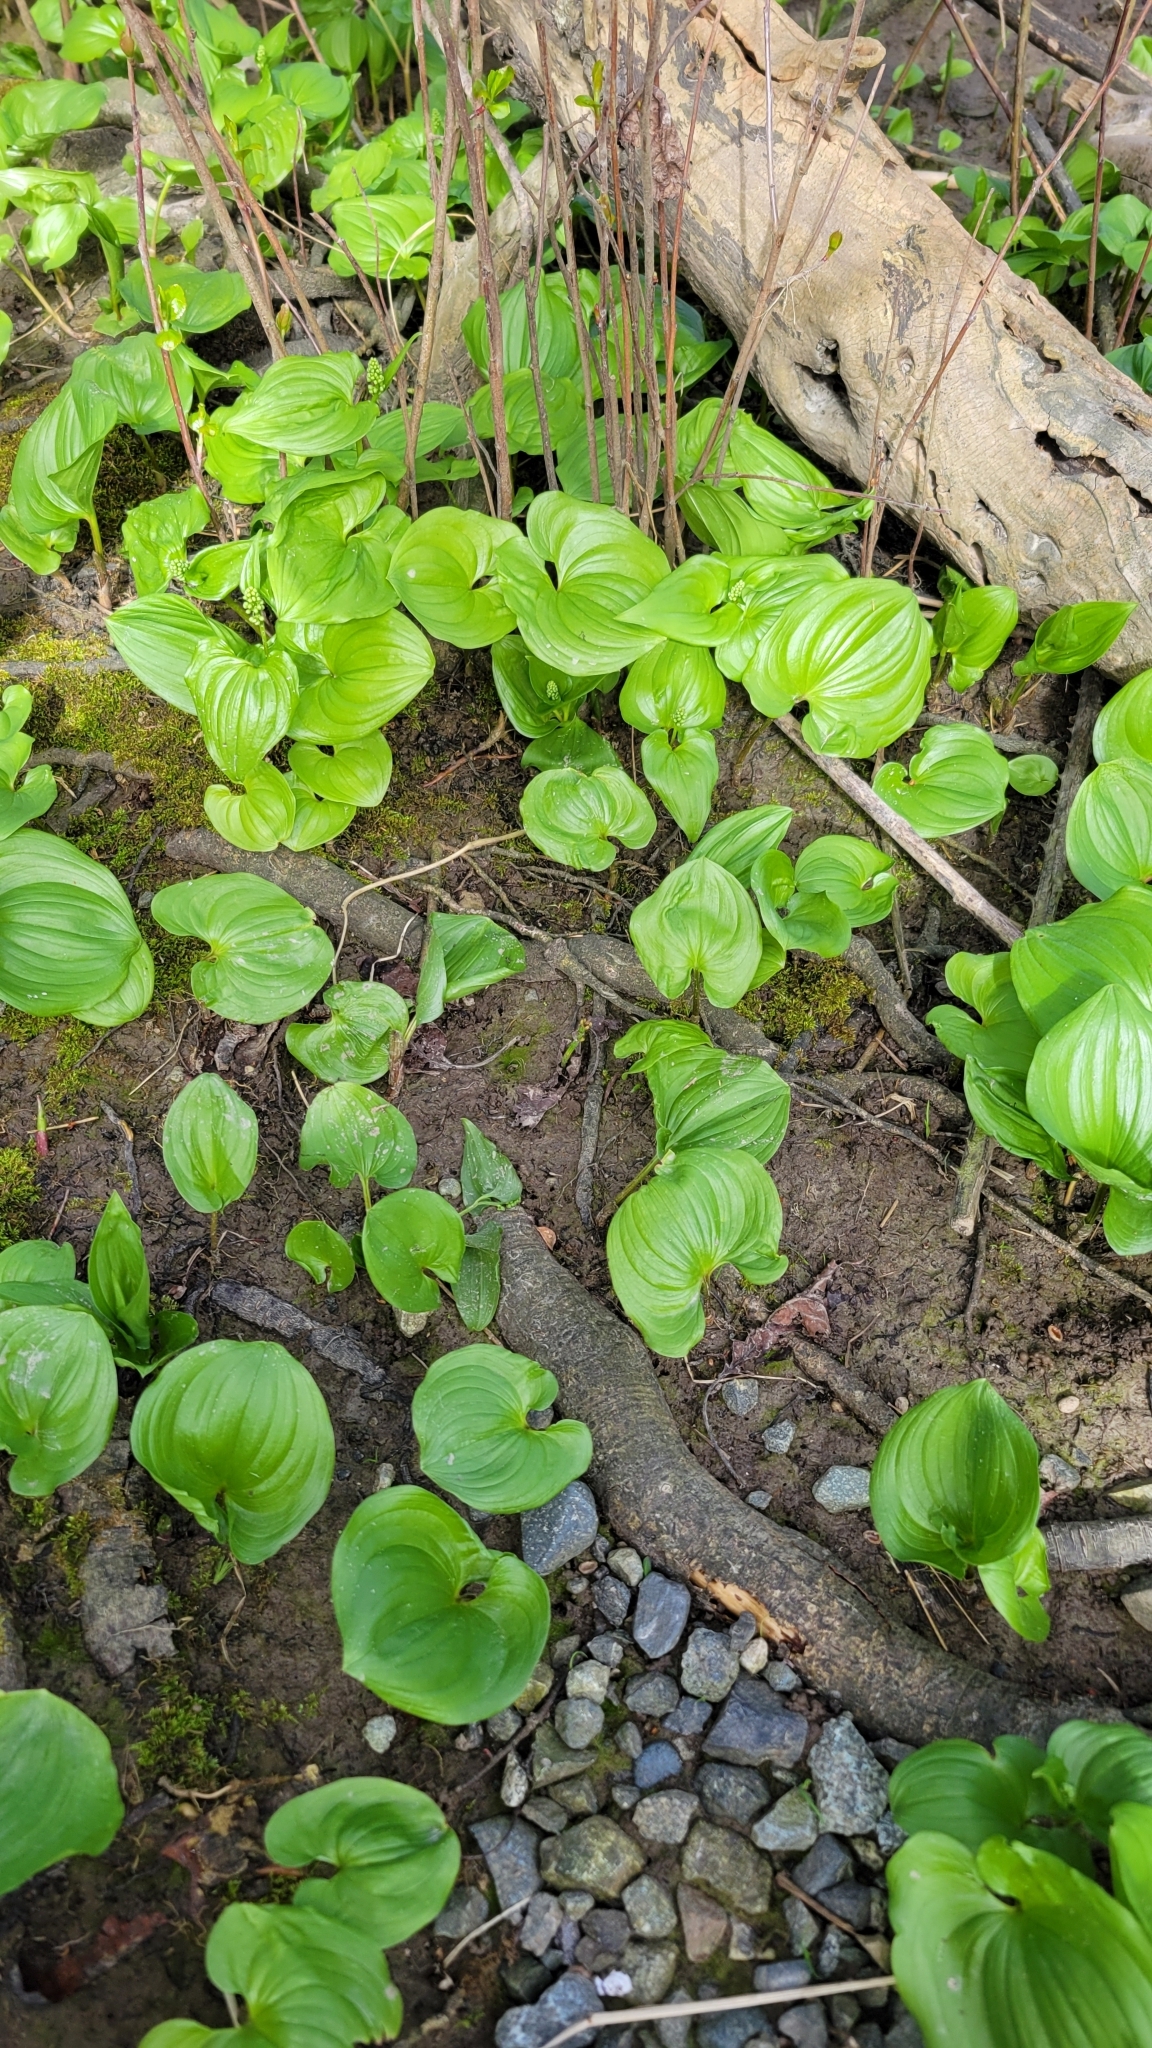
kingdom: Plantae
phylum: Tracheophyta
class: Liliopsida
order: Asparagales
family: Asparagaceae
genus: Maianthemum
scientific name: Maianthemum dilatatum
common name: False lily-of-the-valley
